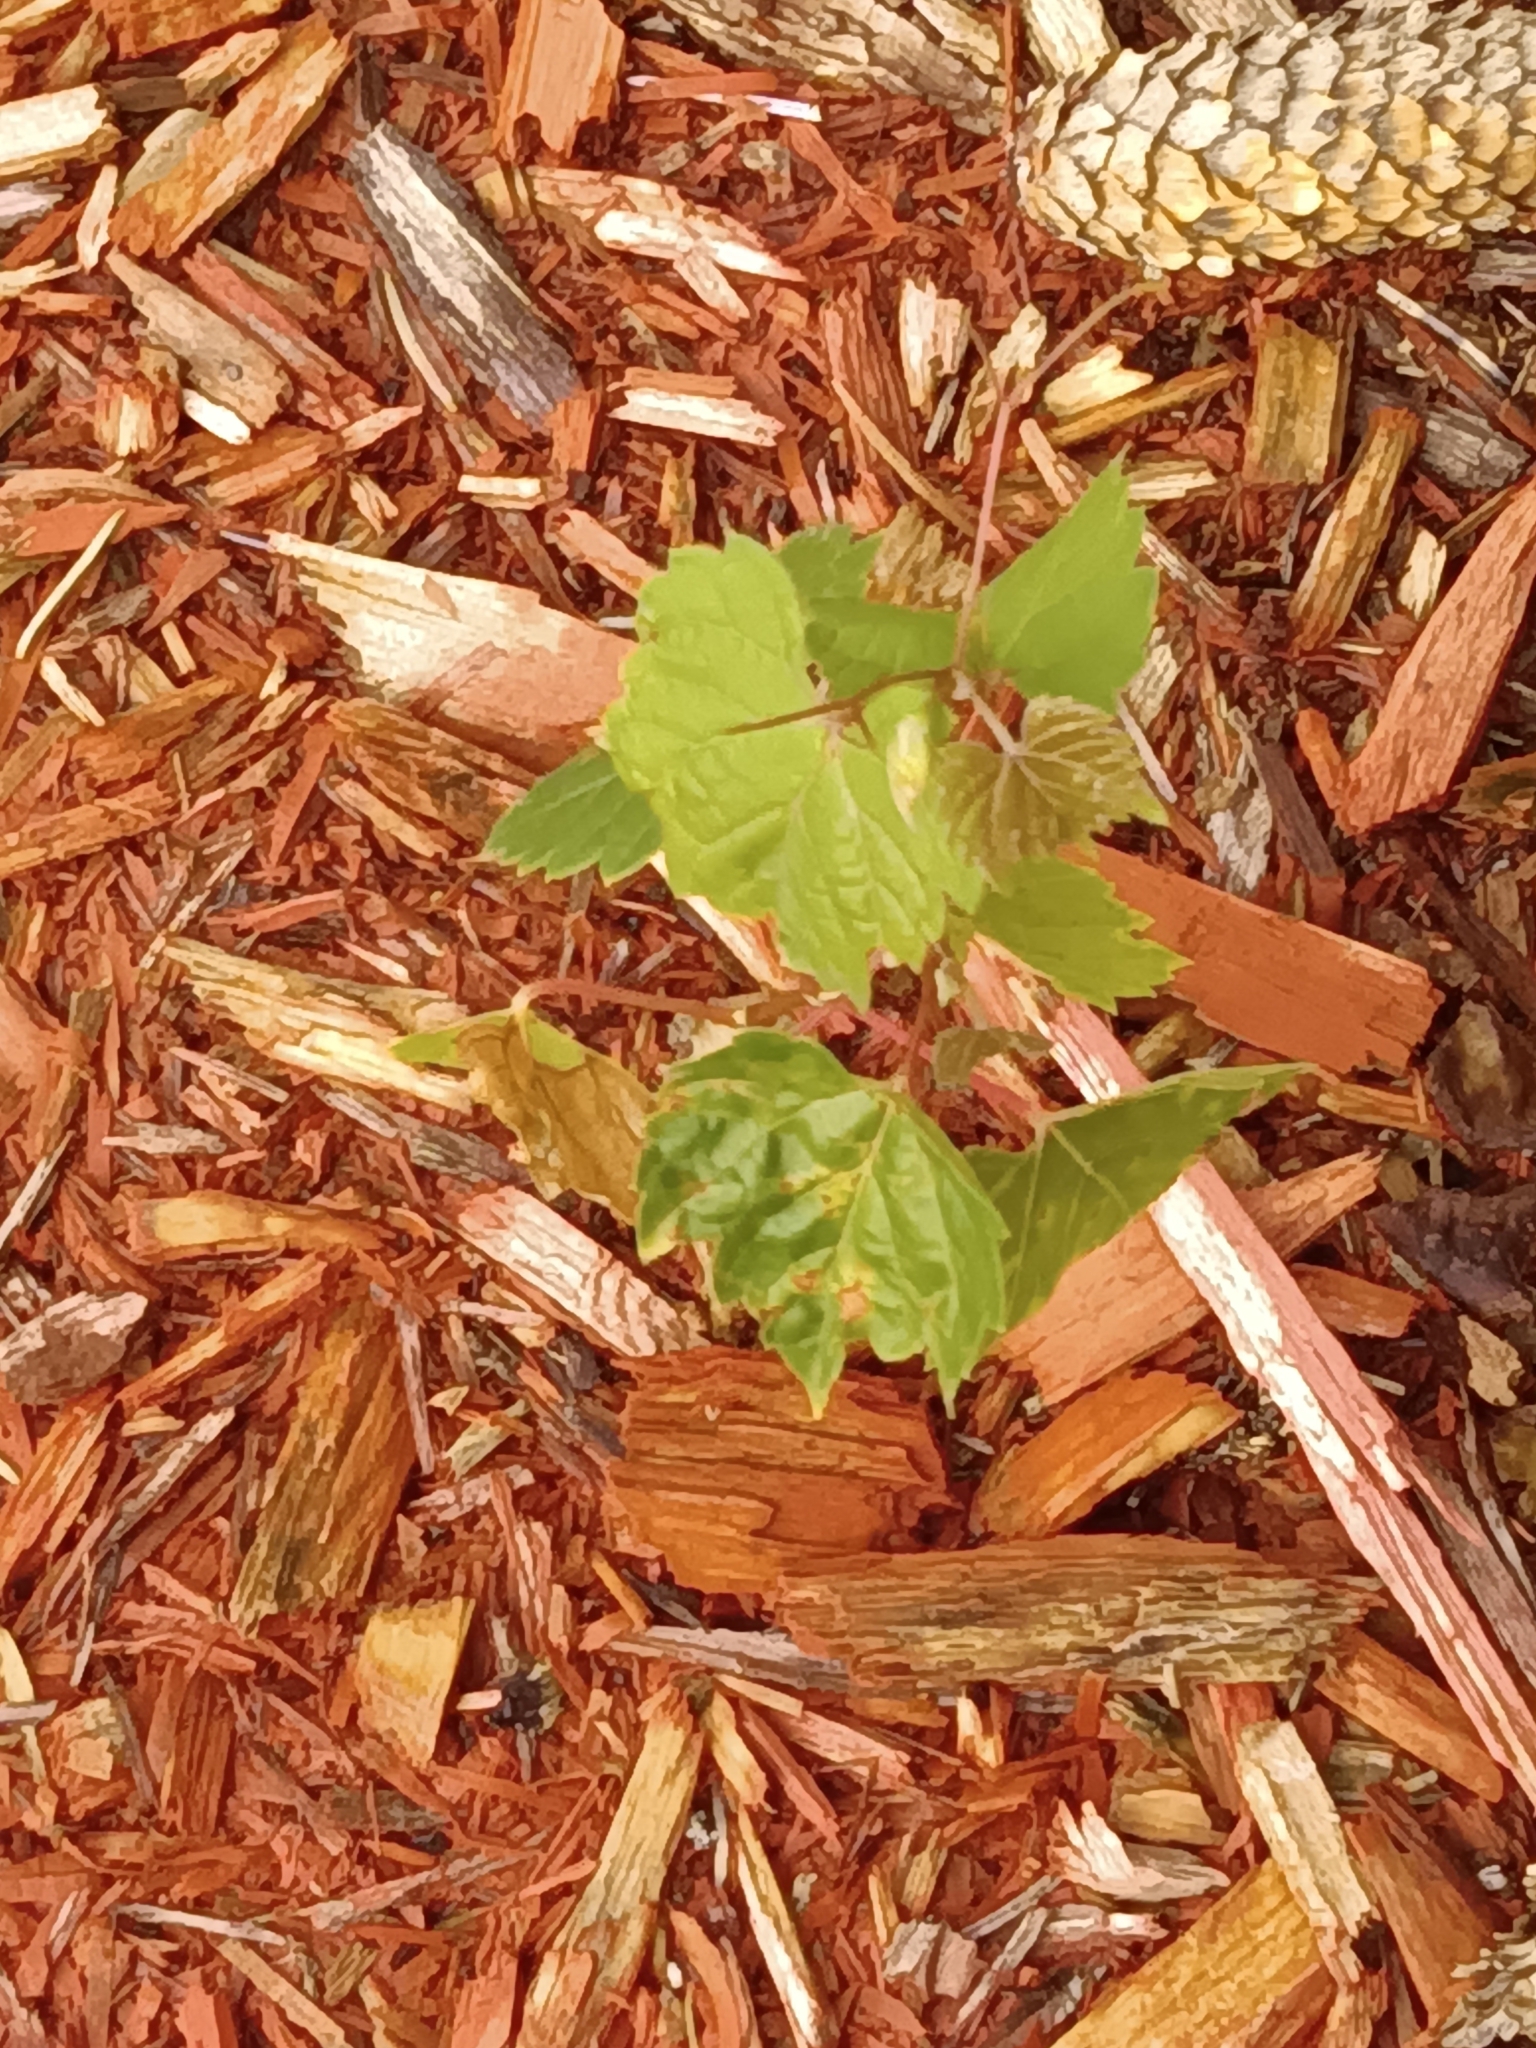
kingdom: Plantae
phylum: Tracheophyta
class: Magnoliopsida
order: Vitales
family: Vitaceae
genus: Vitis
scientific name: Vitis riparia
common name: Frost grape
